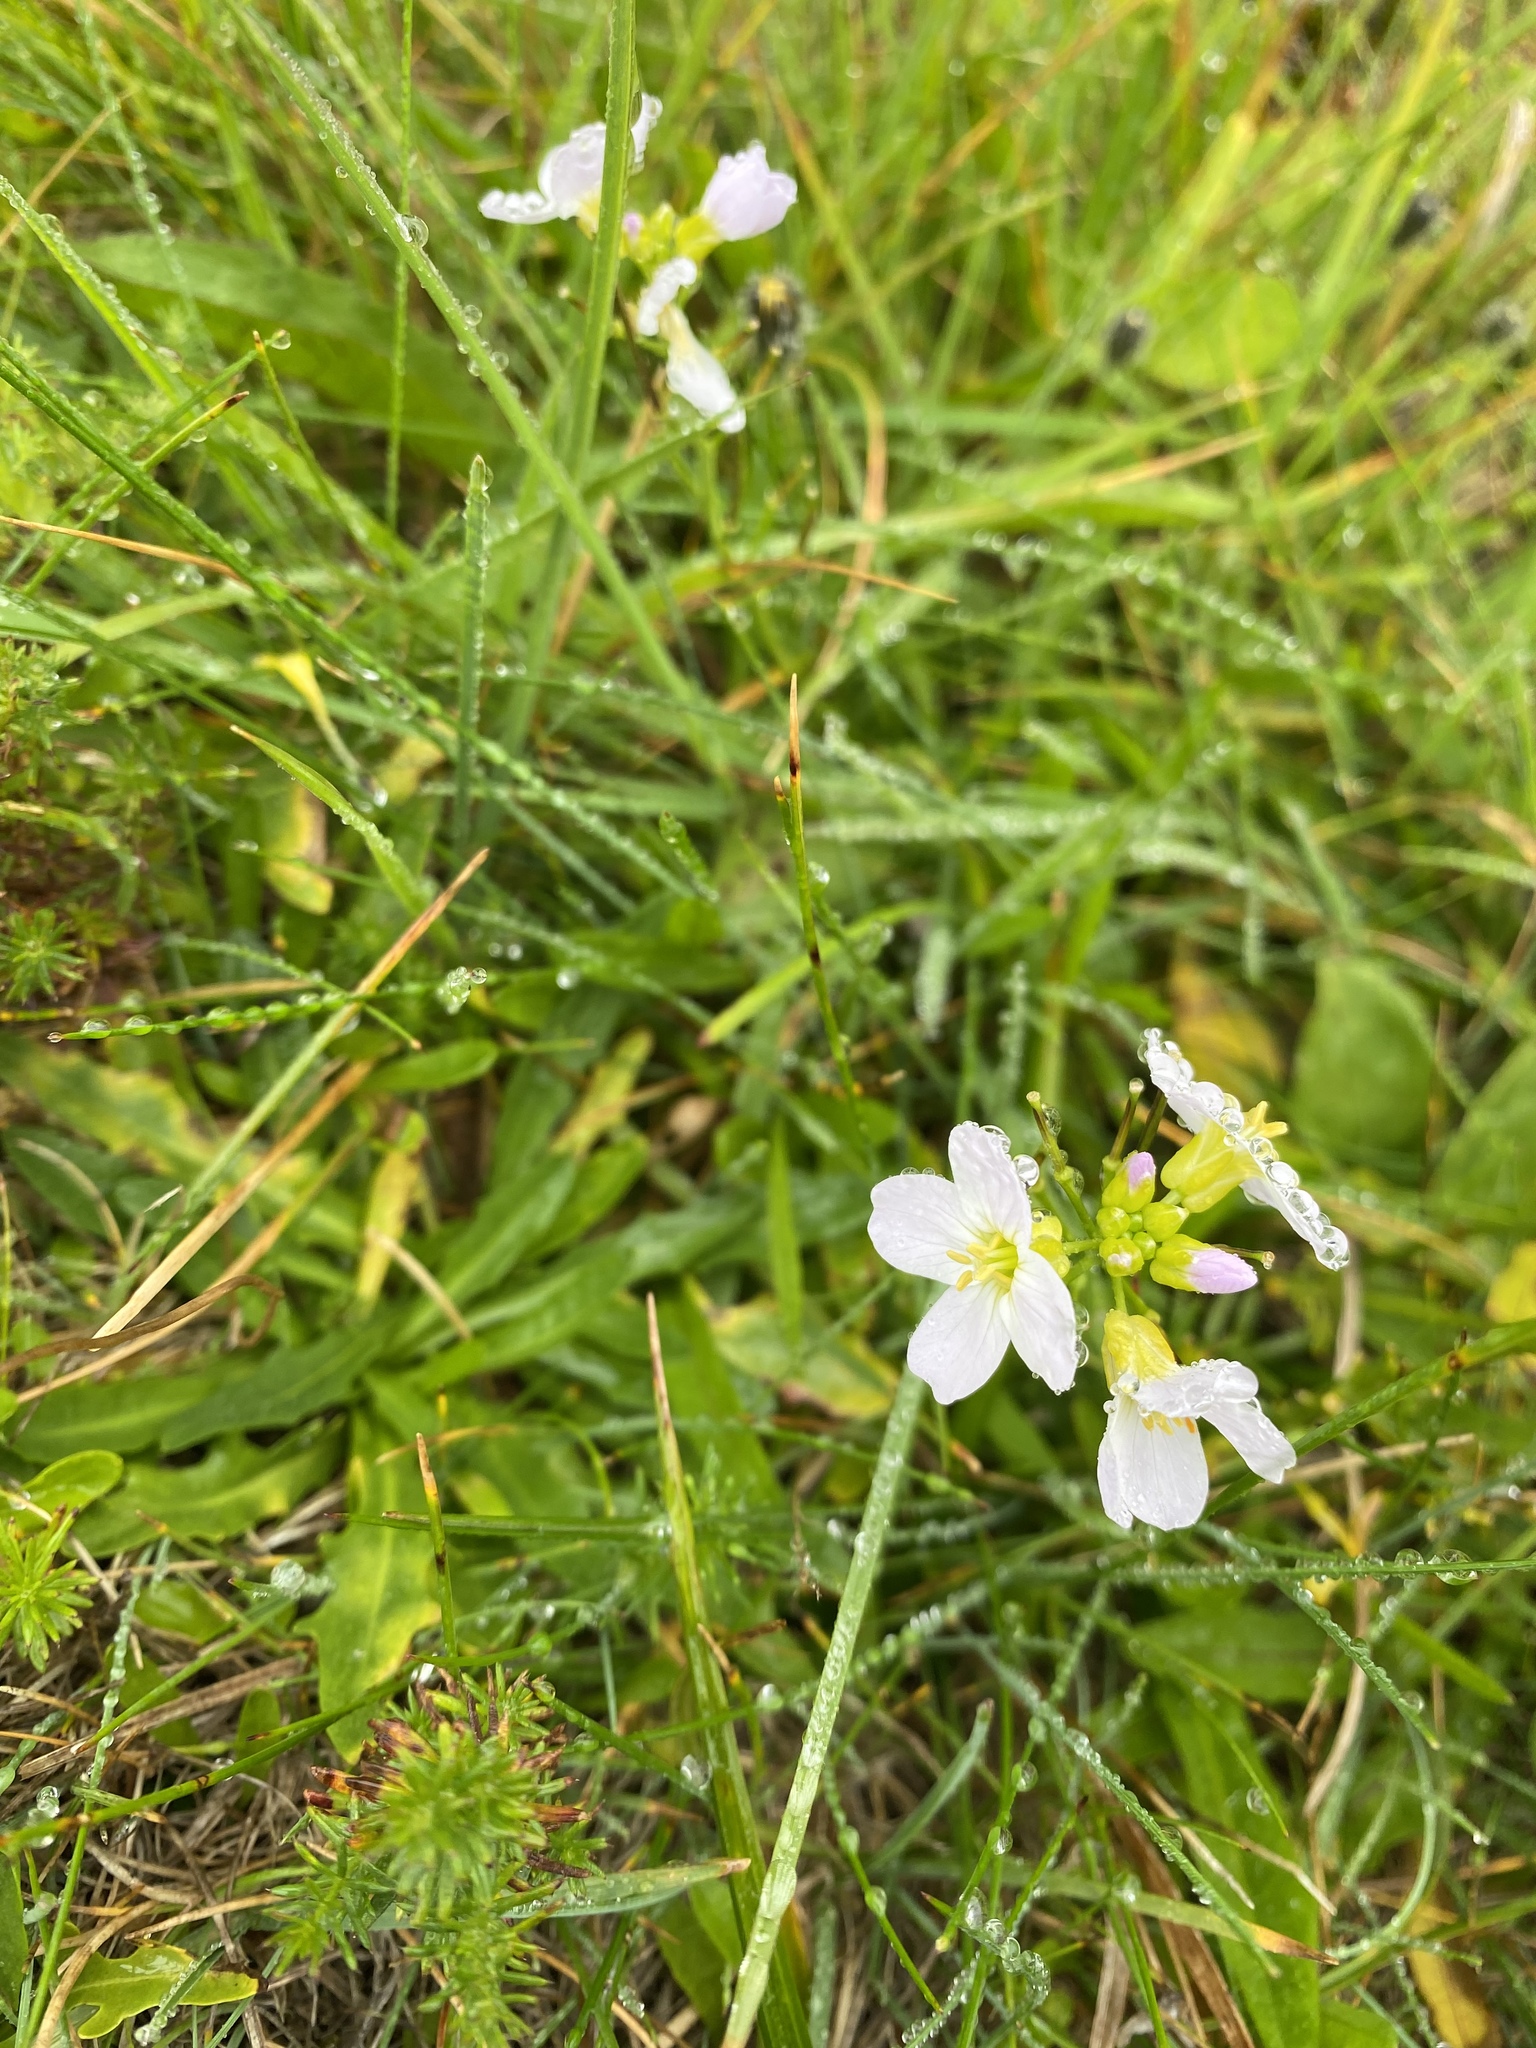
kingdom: Plantae
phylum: Tracheophyta
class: Magnoliopsida
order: Brassicales
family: Brassicaceae
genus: Cardamine
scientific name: Cardamine nymanii
